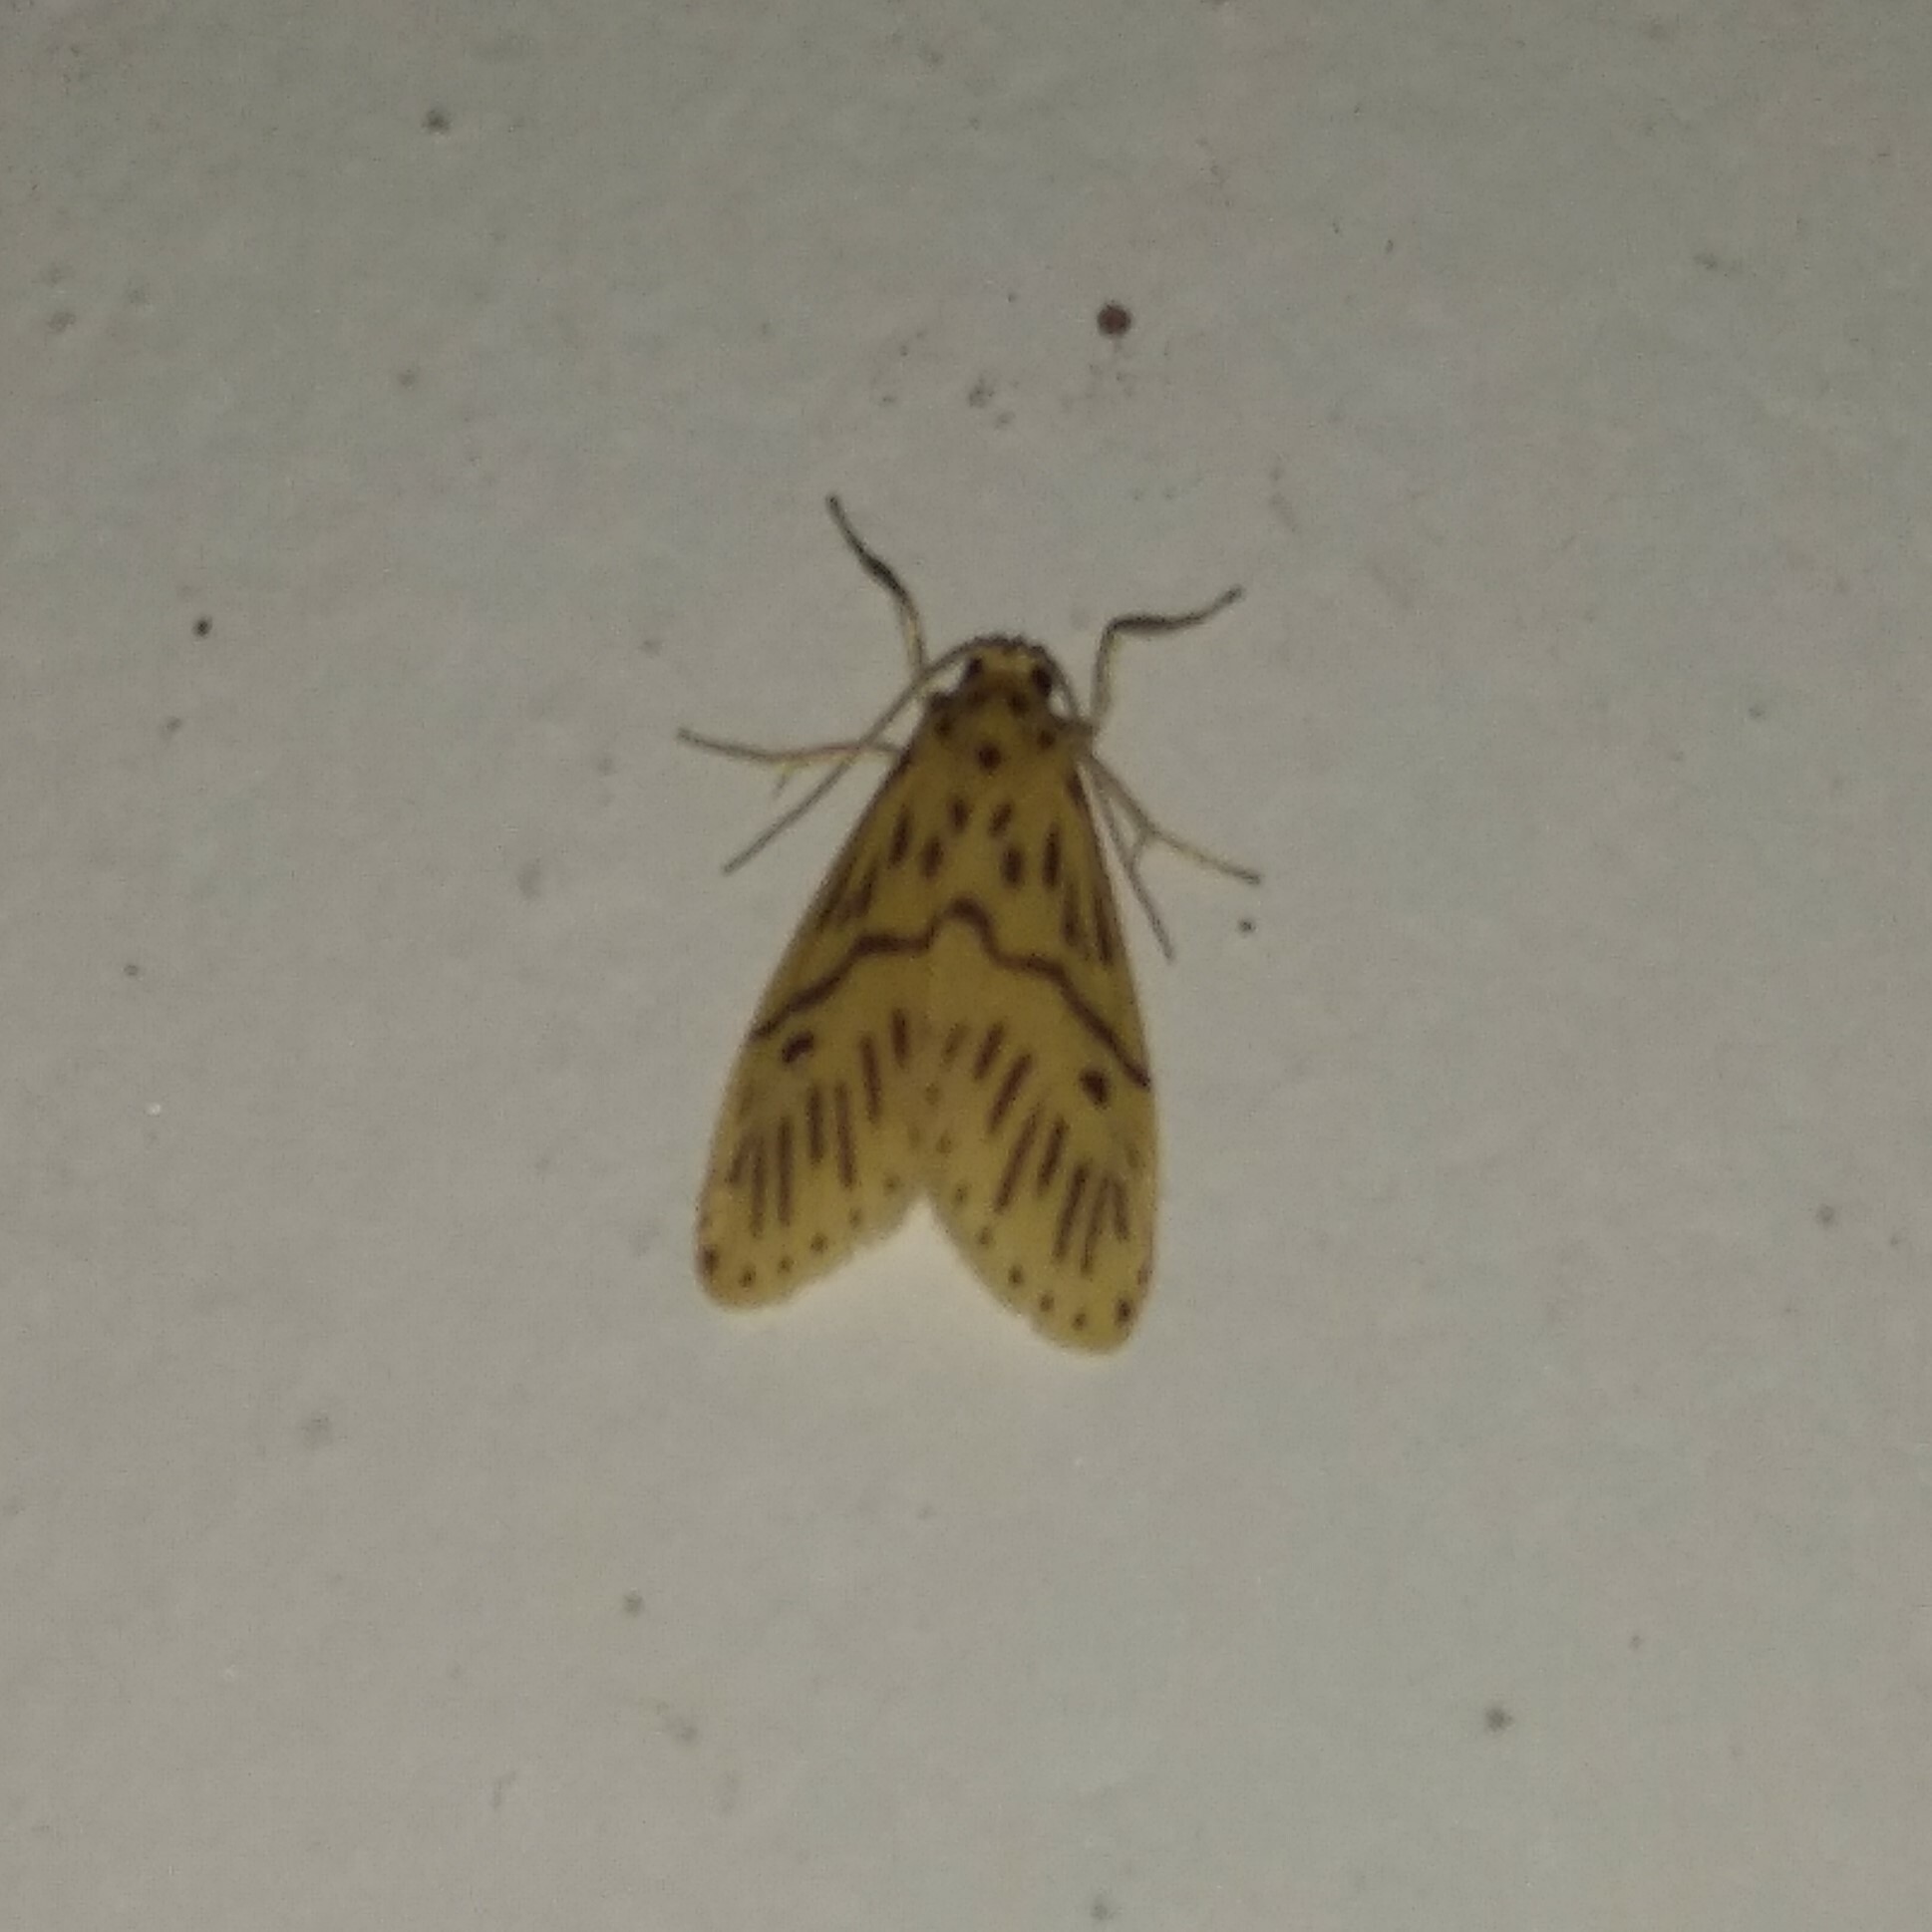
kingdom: Animalia
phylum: Arthropoda
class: Insecta
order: Lepidoptera
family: Erebidae
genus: Miltochrista
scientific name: Miltochrista strigipennis
